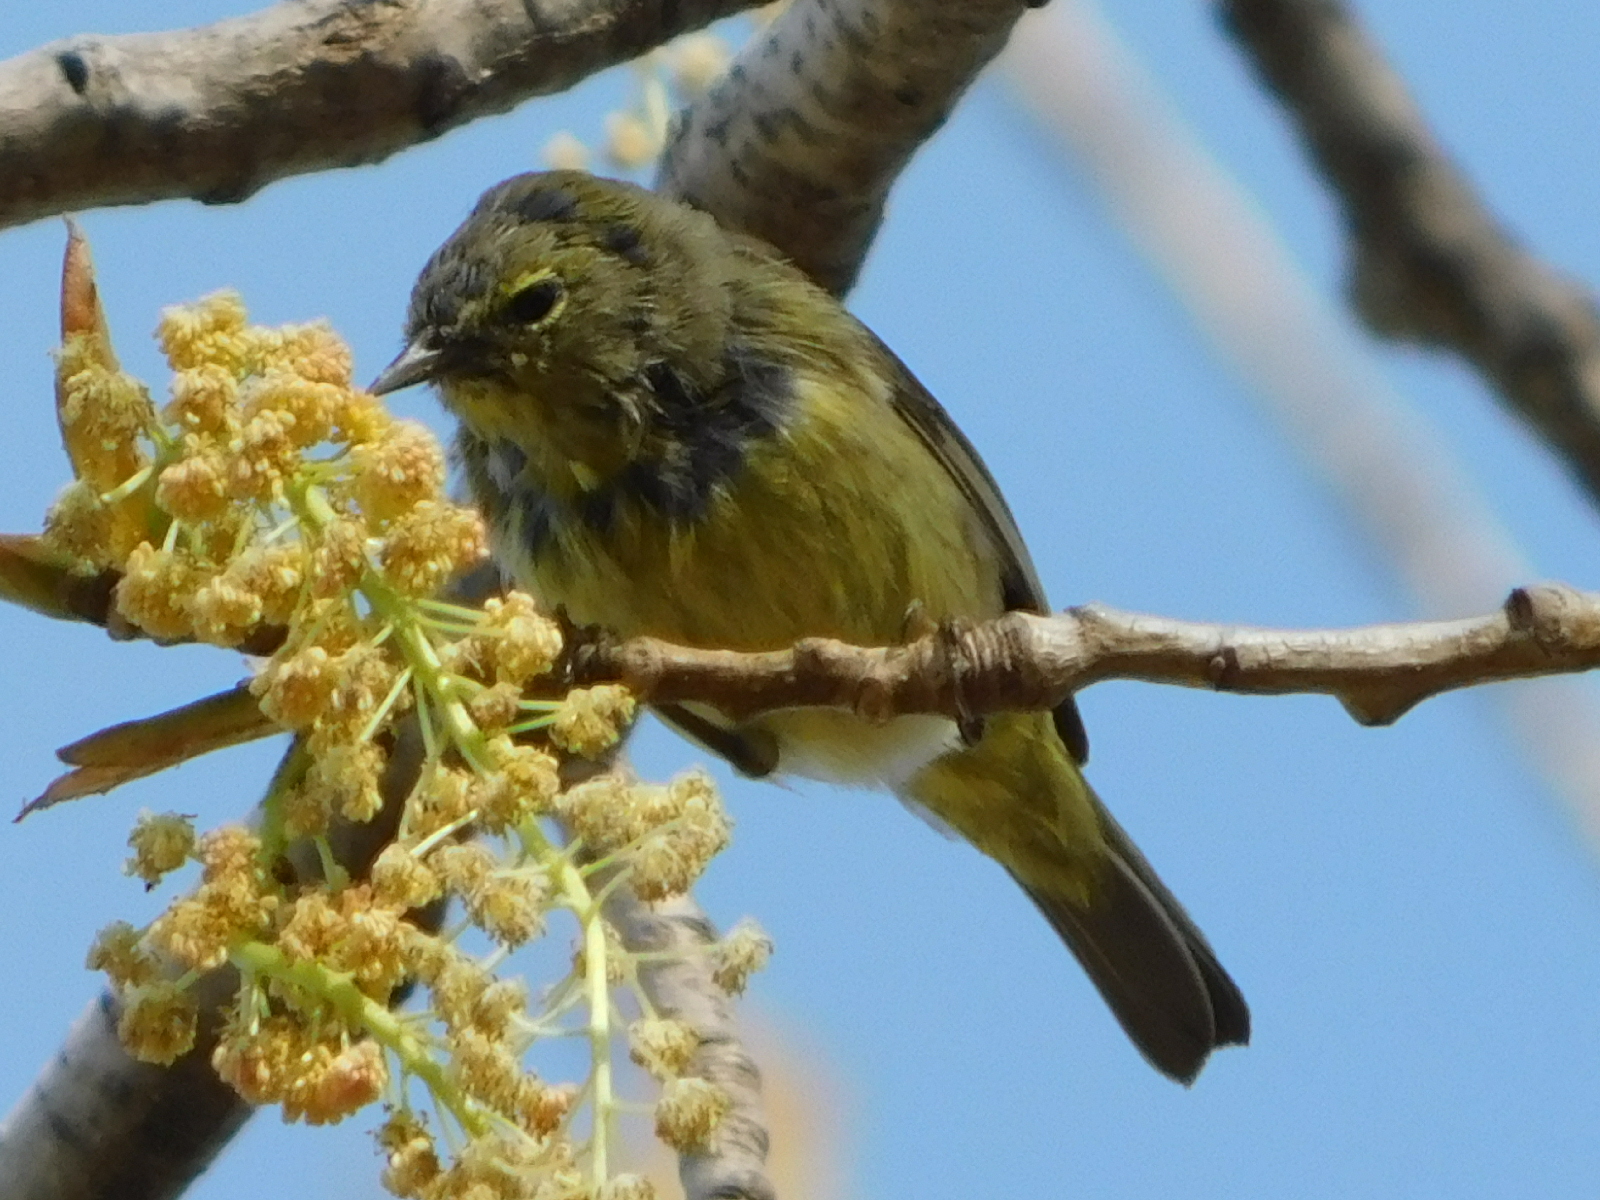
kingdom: Animalia
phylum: Chordata
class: Aves
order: Passeriformes
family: Parulidae
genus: Leiothlypis
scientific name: Leiothlypis celata
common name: Orange-crowned warbler
